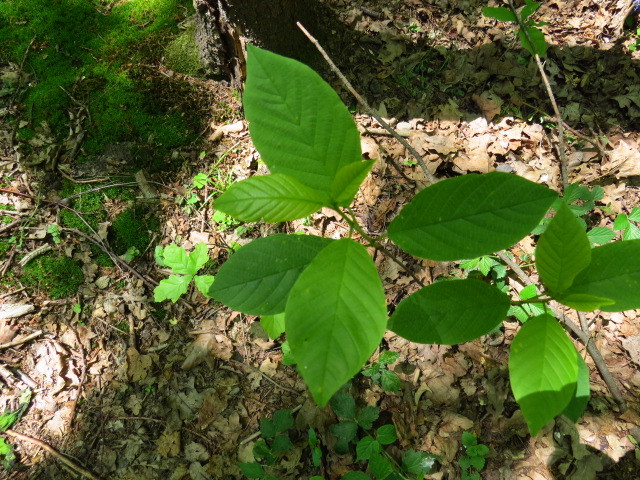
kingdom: Plantae
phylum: Tracheophyta
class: Magnoliopsida
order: Rosales
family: Rhamnaceae
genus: Frangula
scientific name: Frangula alnus
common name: Alder buckthorn
